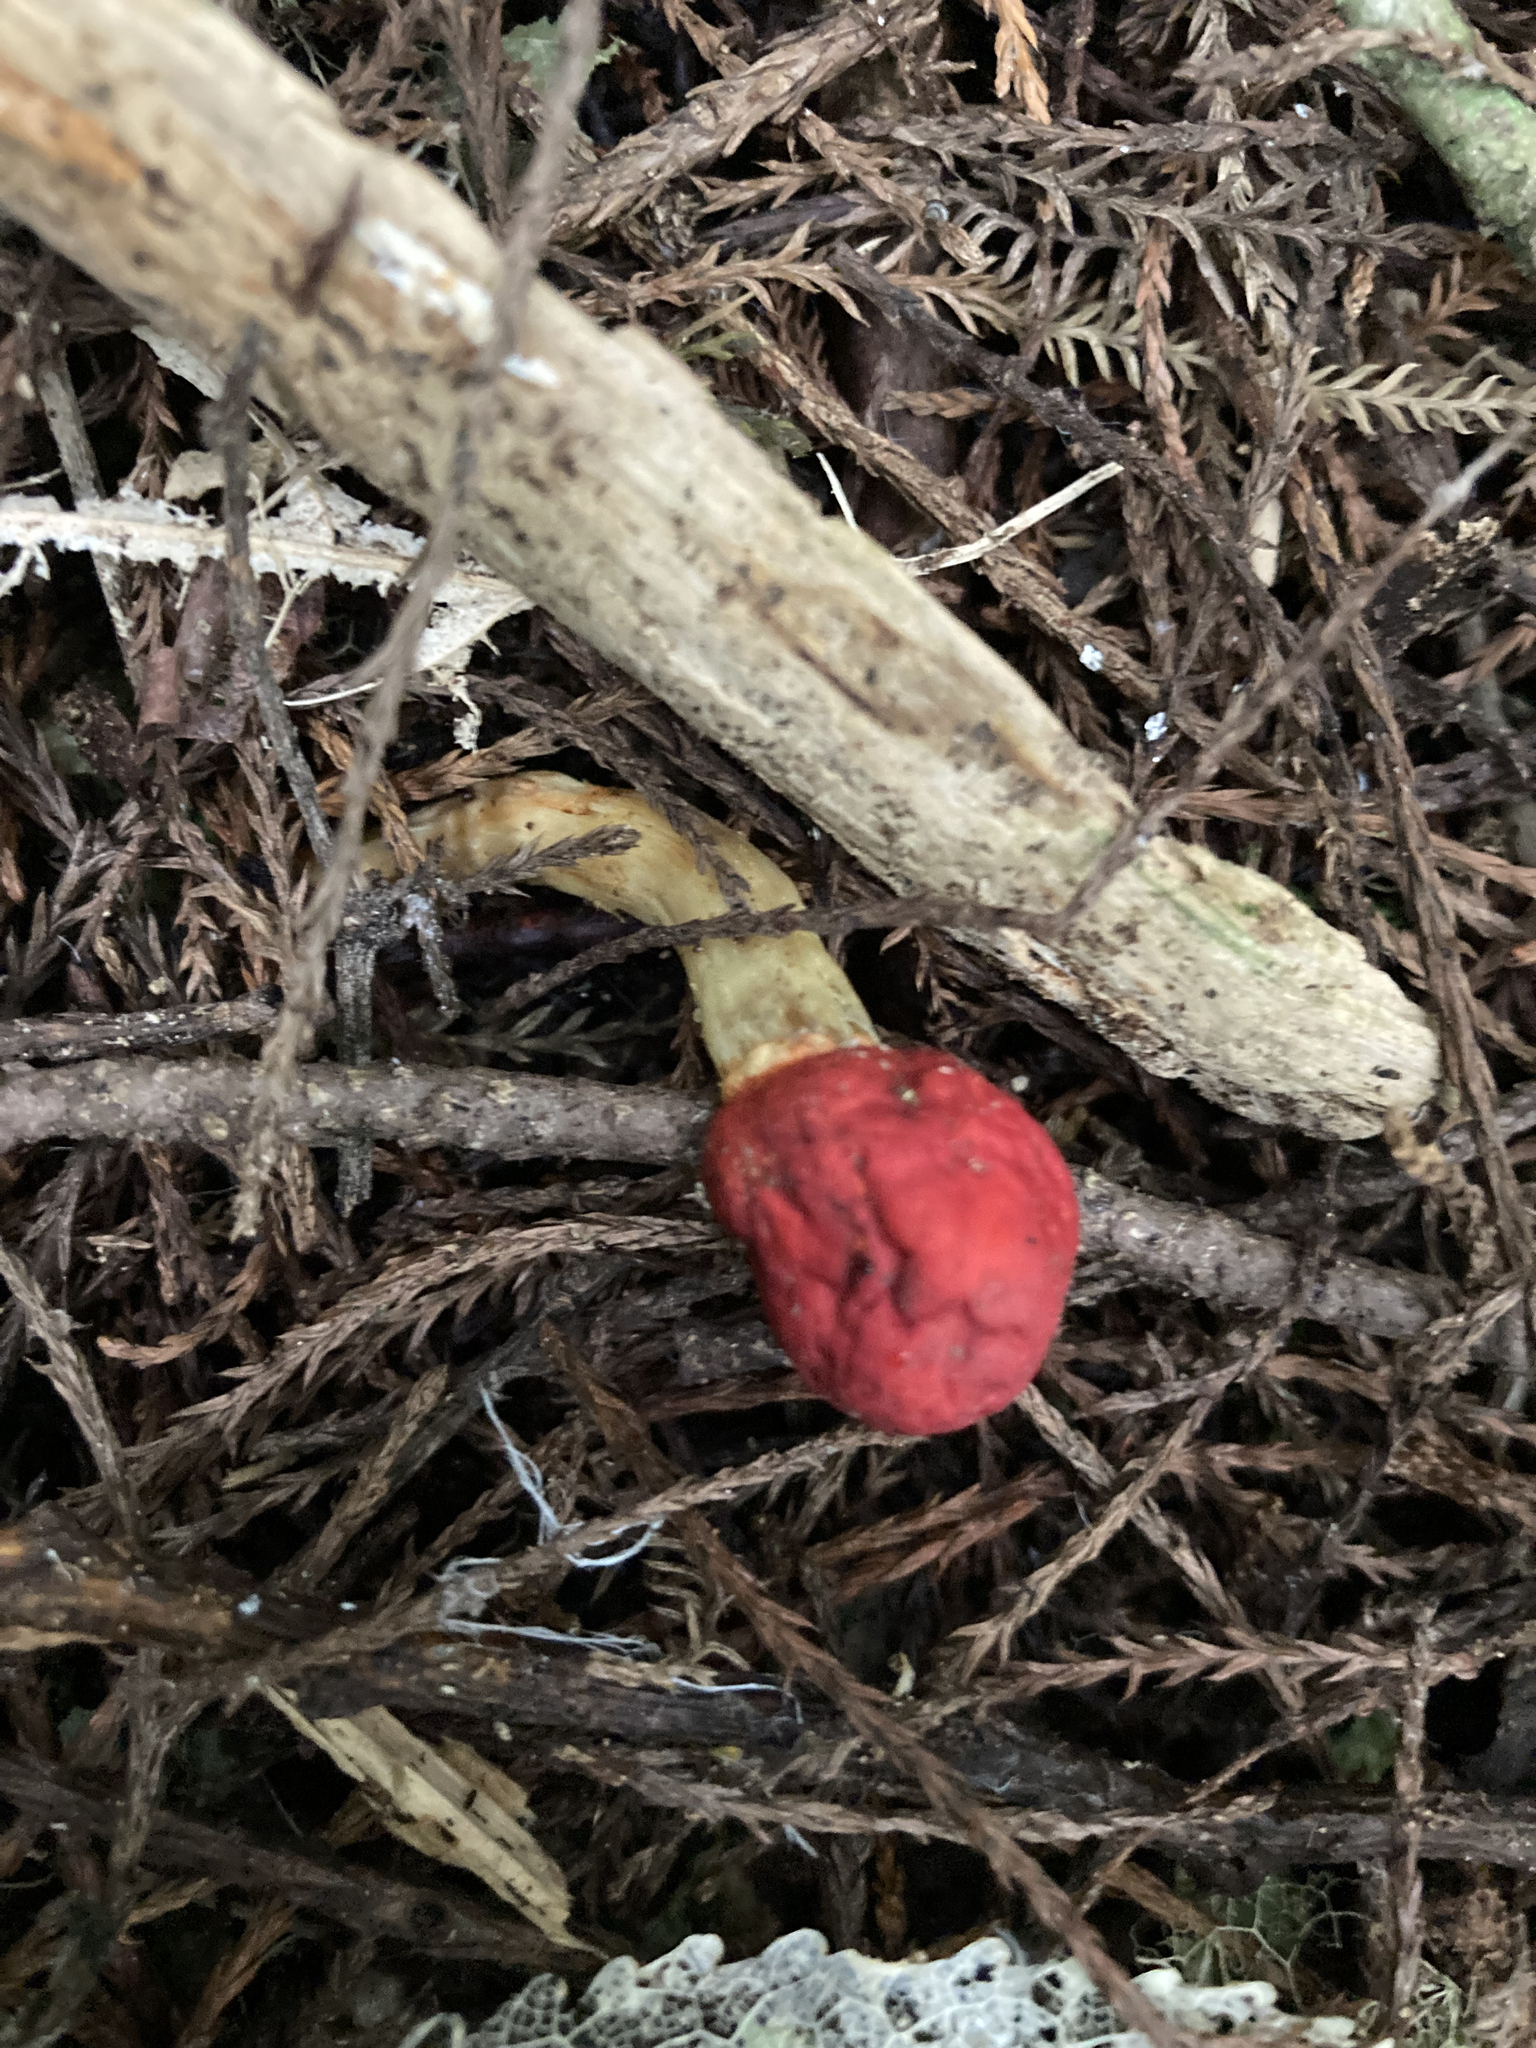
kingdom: Fungi
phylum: Basidiomycota
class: Agaricomycetes
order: Agaricales
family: Strophariaceae
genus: Leratiomyces
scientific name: Leratiomyces erythrocephalus
